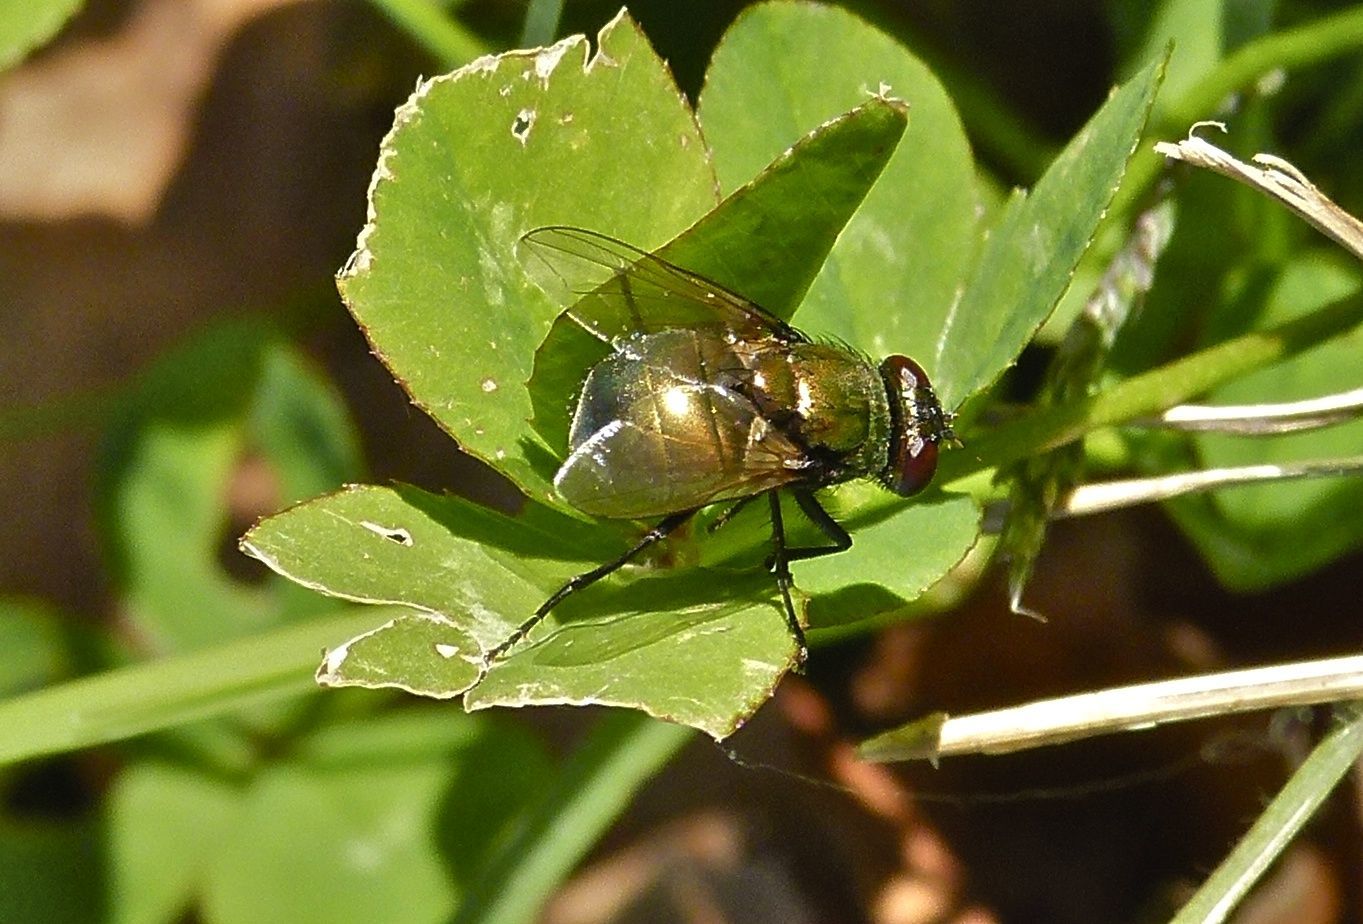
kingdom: Animalia
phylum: Arthropoda
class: Insecta
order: Diptera
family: Muscidae
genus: Neomyia
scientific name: Neomyia cornicina
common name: House fly
